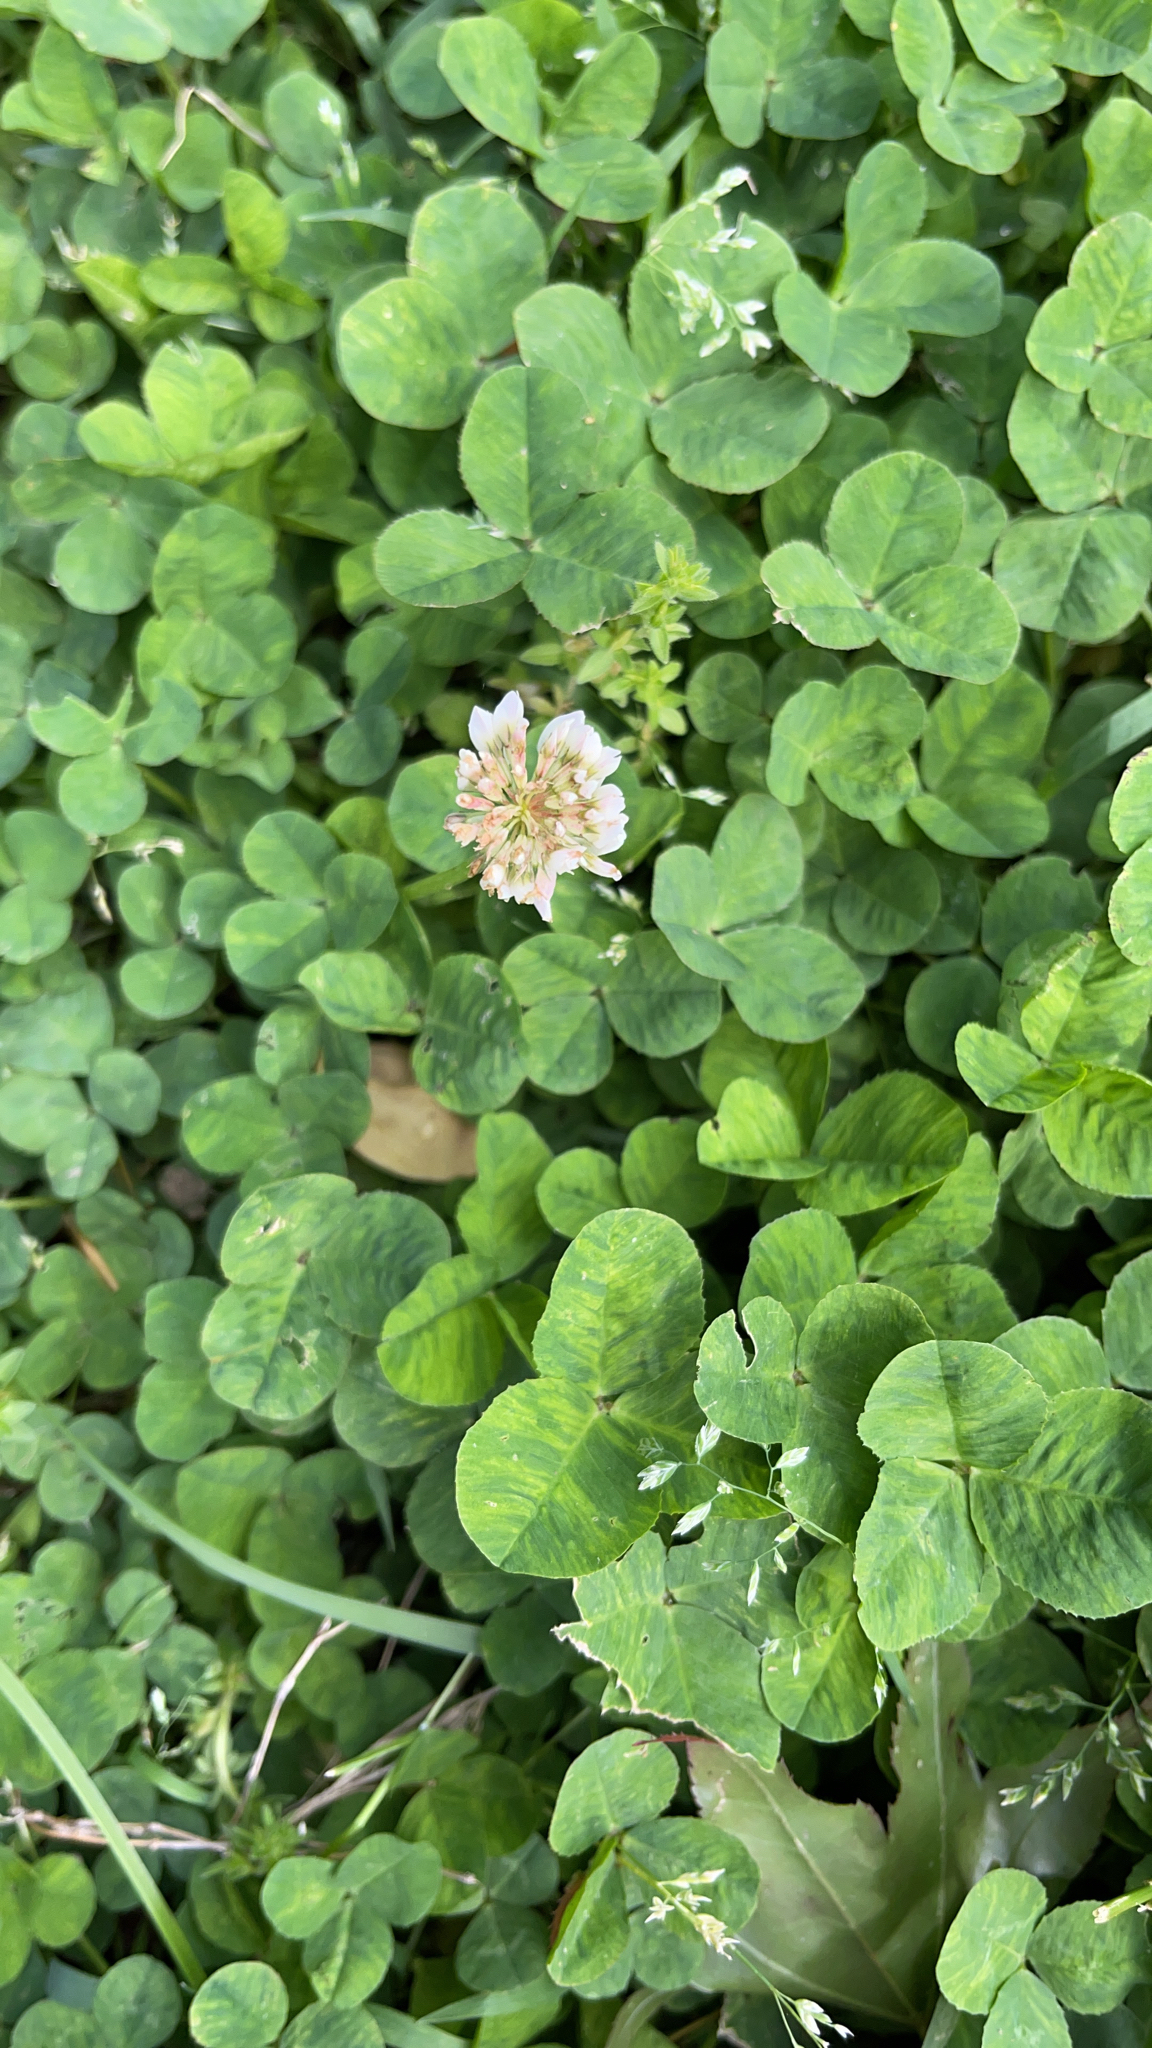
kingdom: Plantae
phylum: Tracheophyta
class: Magnoliopsida
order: Fabales
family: Fabaceae
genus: Trifolium
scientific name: Trifolium repens
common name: White clover
